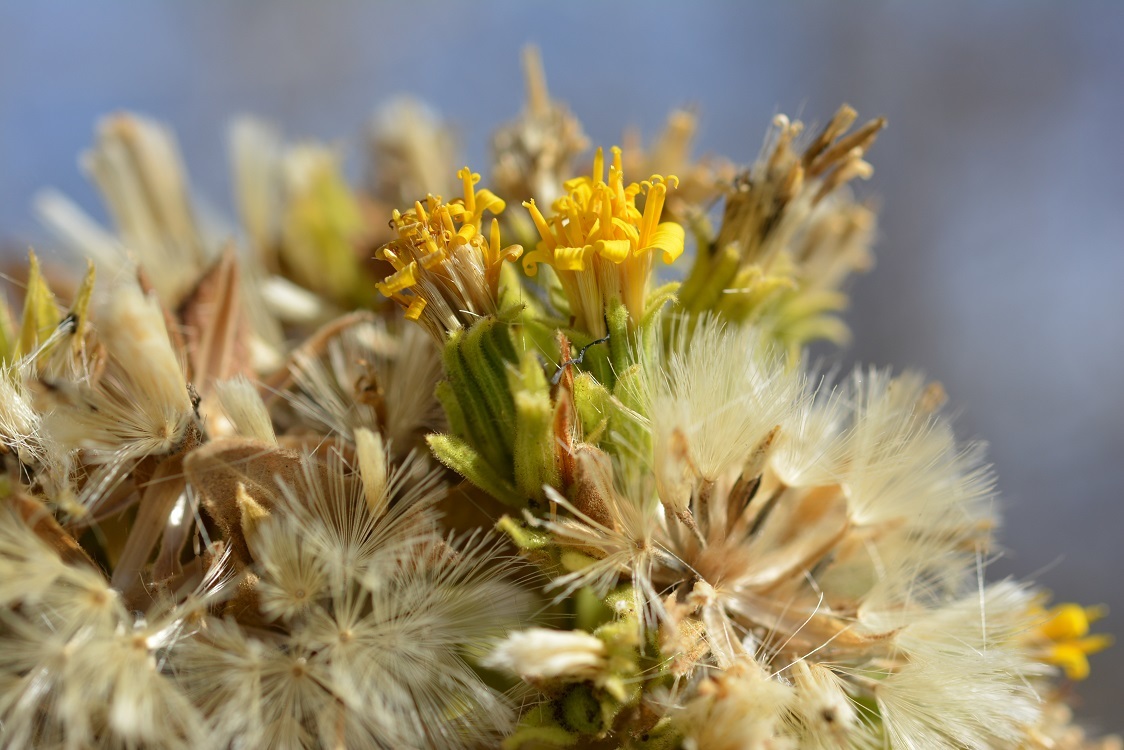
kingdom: Plantae
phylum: Tracheophyta
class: Magnoliopsida
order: Asterales
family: Asteraceae
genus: Trixis
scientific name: Trixis anomala
